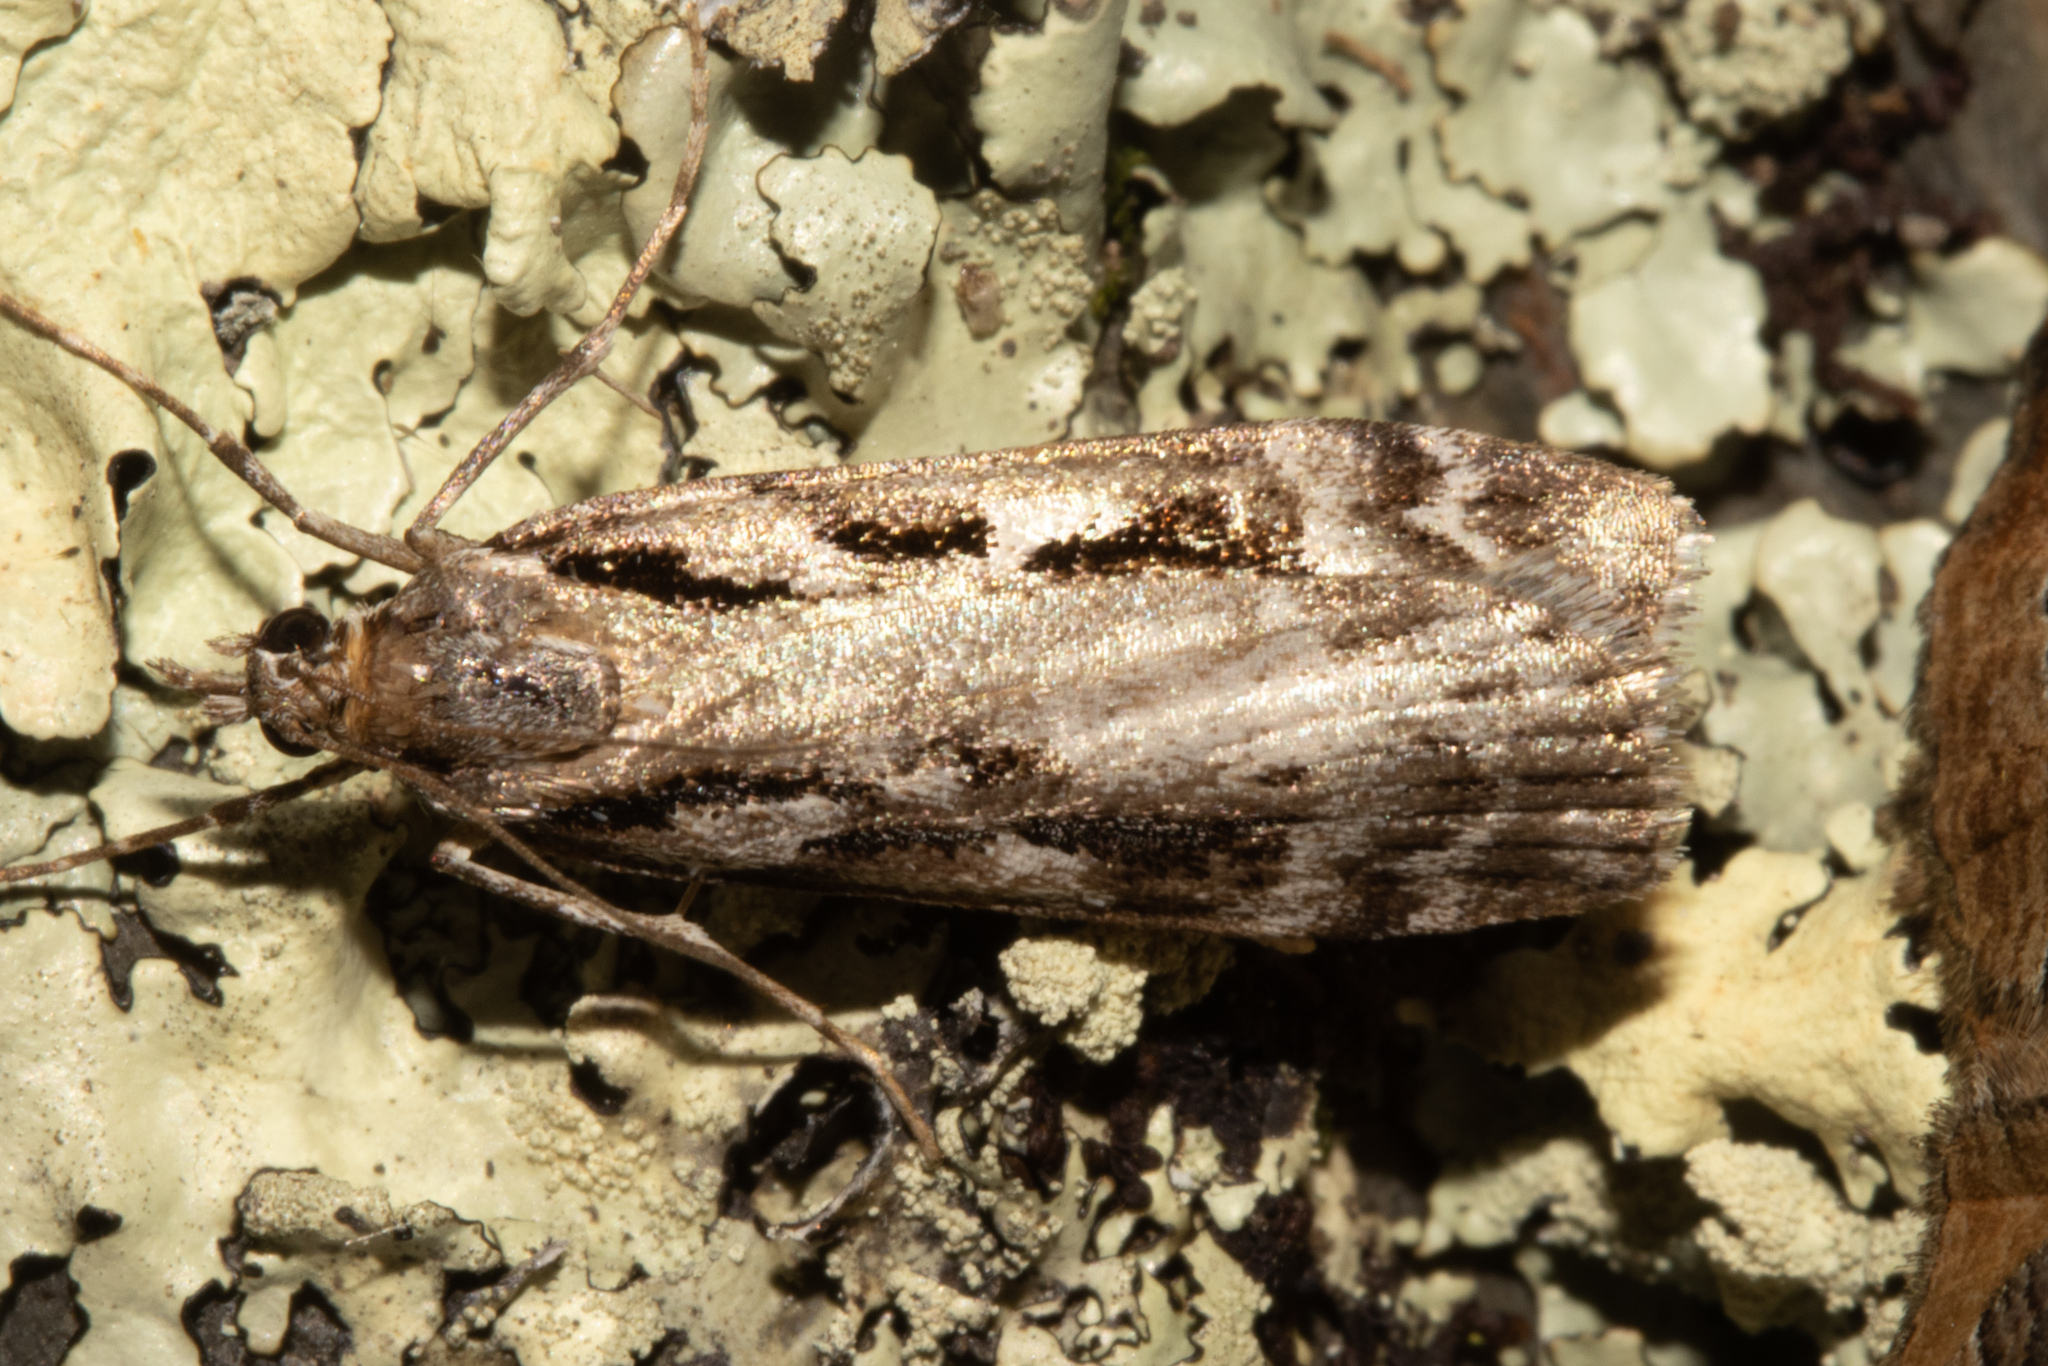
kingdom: Animalia
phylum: Arthropoda
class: Insecta
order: Lepidoptera
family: Crambidae
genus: Scoparia
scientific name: Scoparia halopis
